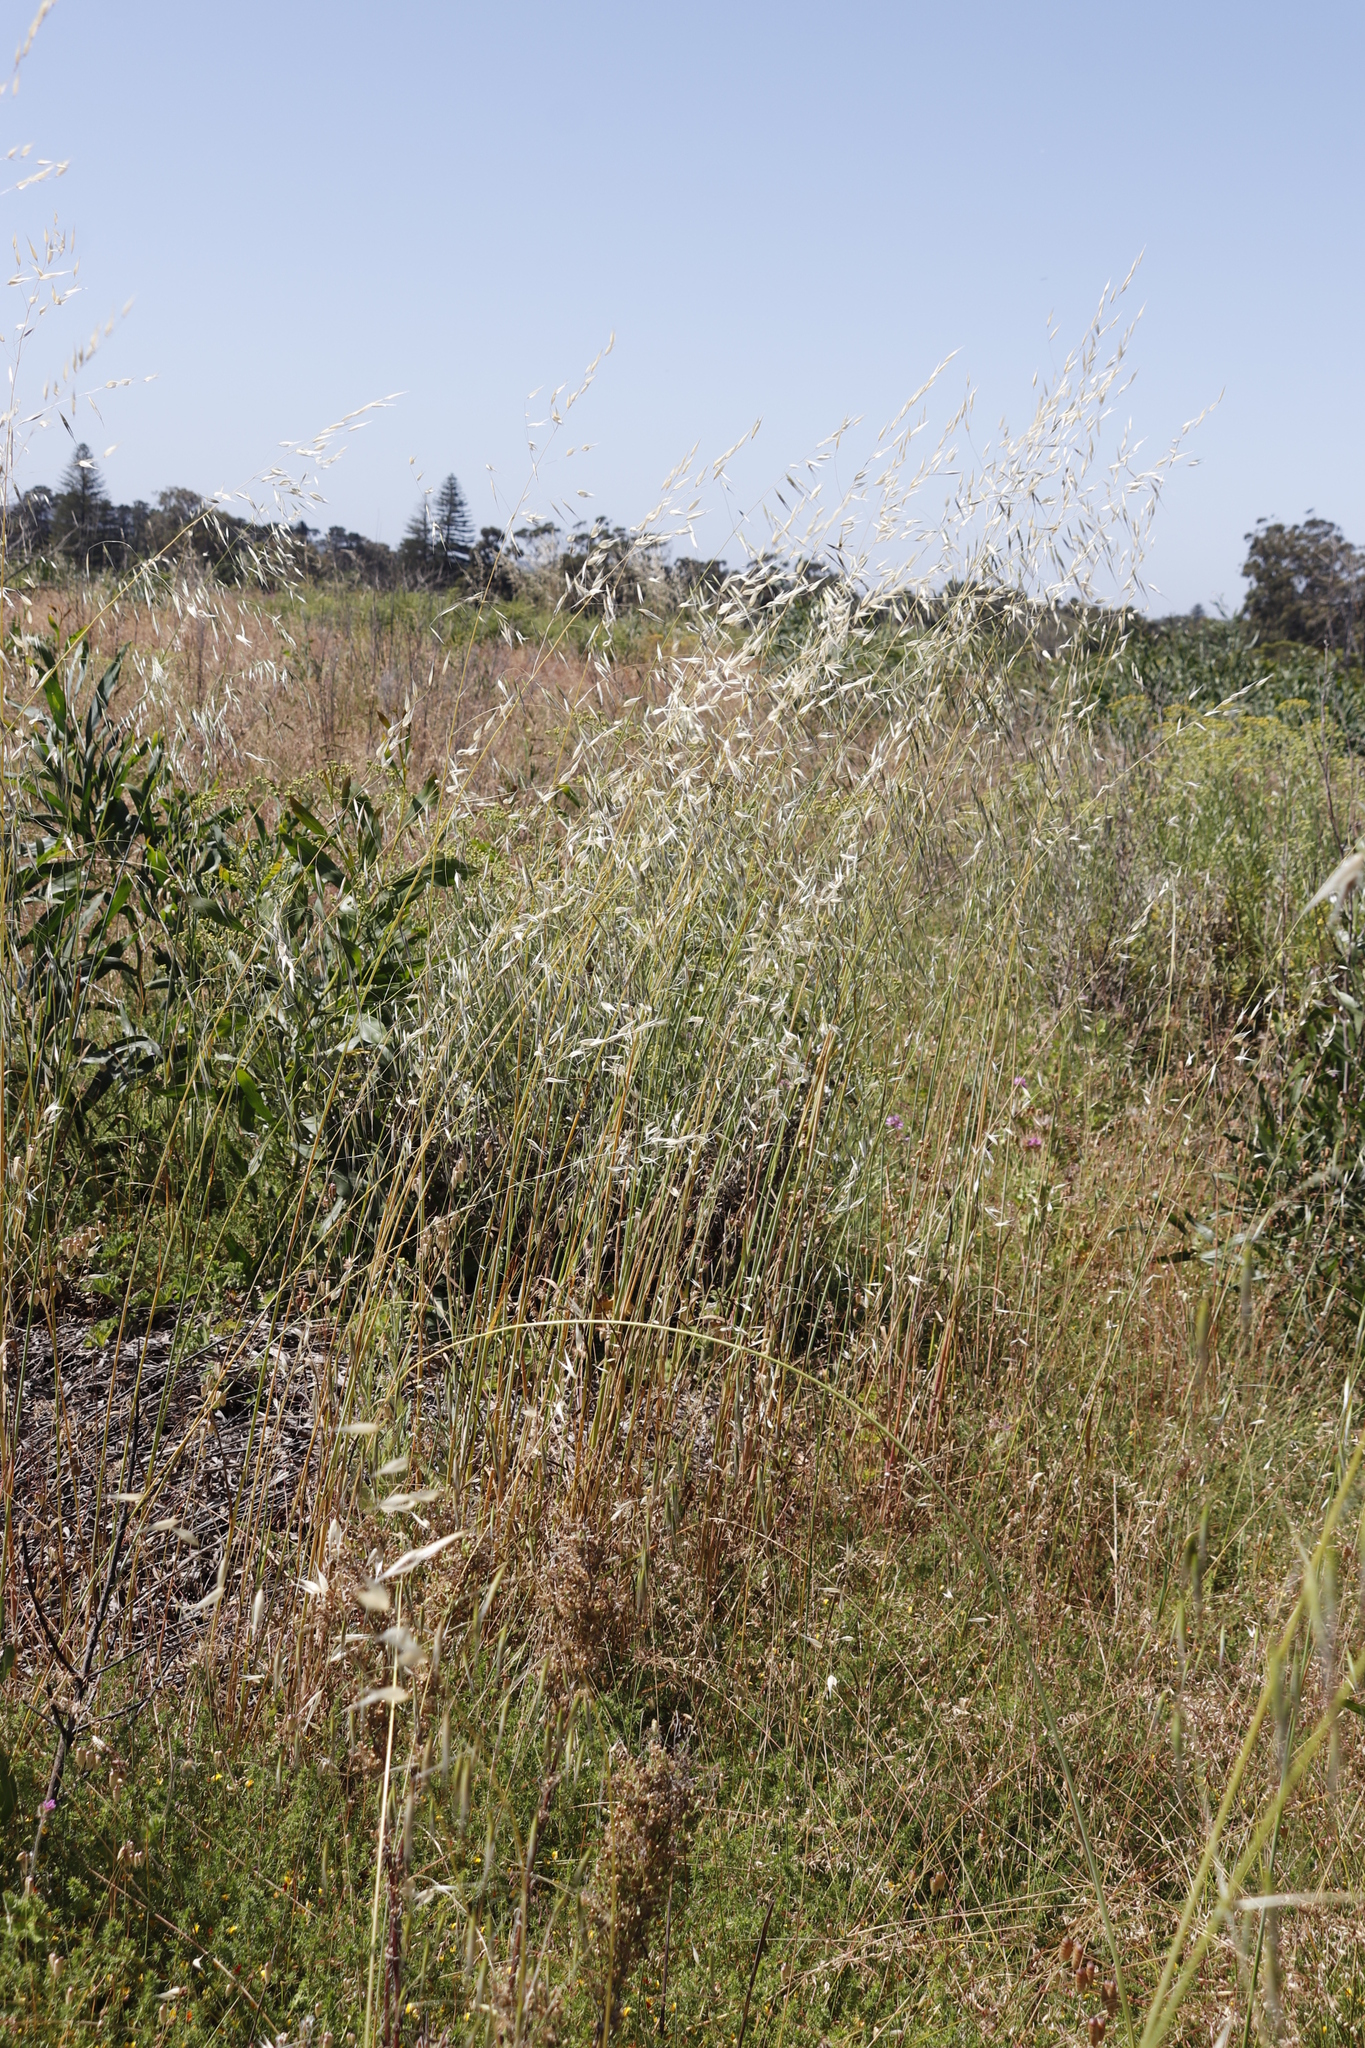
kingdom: Plantae
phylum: Tracheophyta
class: Liliopsida
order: Poales
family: Poaceae
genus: Avena
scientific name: Avena fatua
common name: Wild oat
